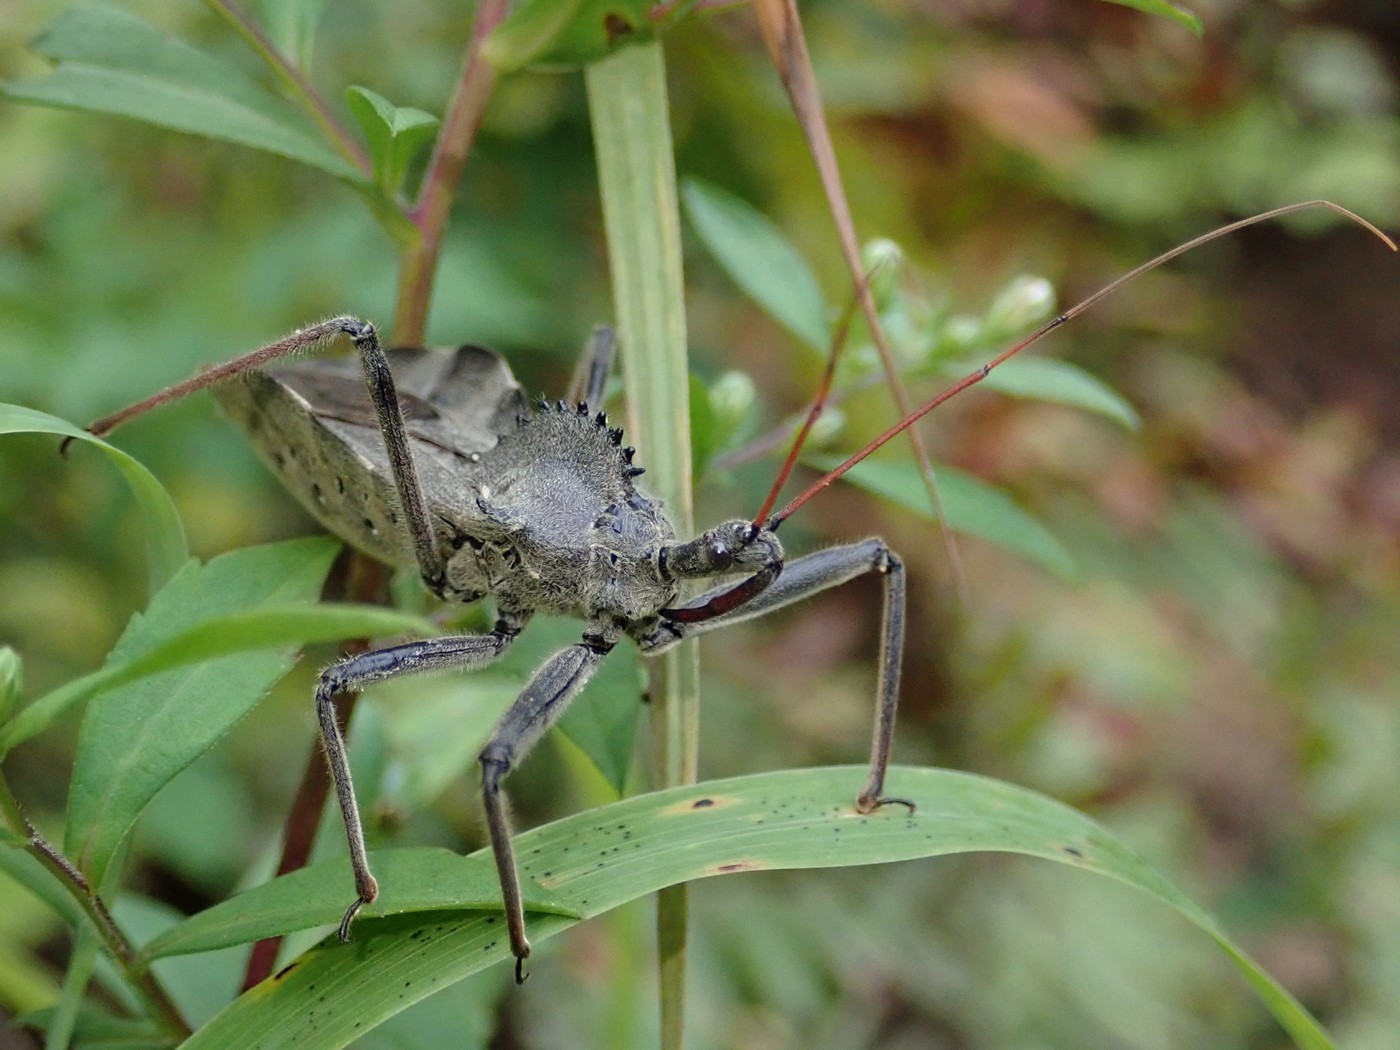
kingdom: Animalia
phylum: Arthropoda
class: Insecta
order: Hemiptera
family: Reduviidae
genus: Arilus
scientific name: Arilus cristatus
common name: North american wheel bug
